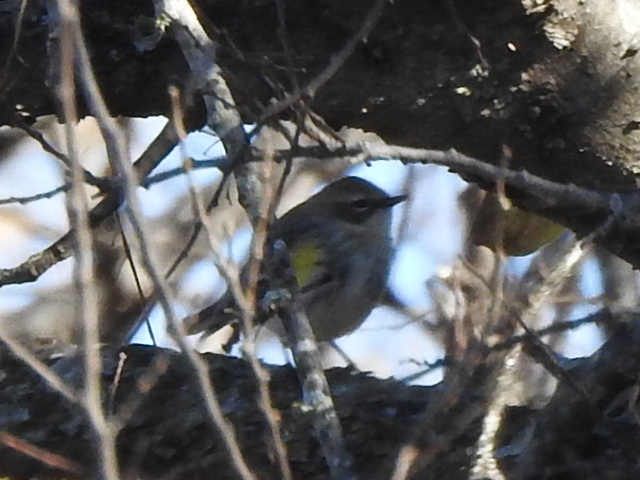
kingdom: Animalia
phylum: Chordata
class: Aves
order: Passeriformes
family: Parulidae
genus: Setophaga
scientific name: Setophaga coronata
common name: Myrtle warbler
